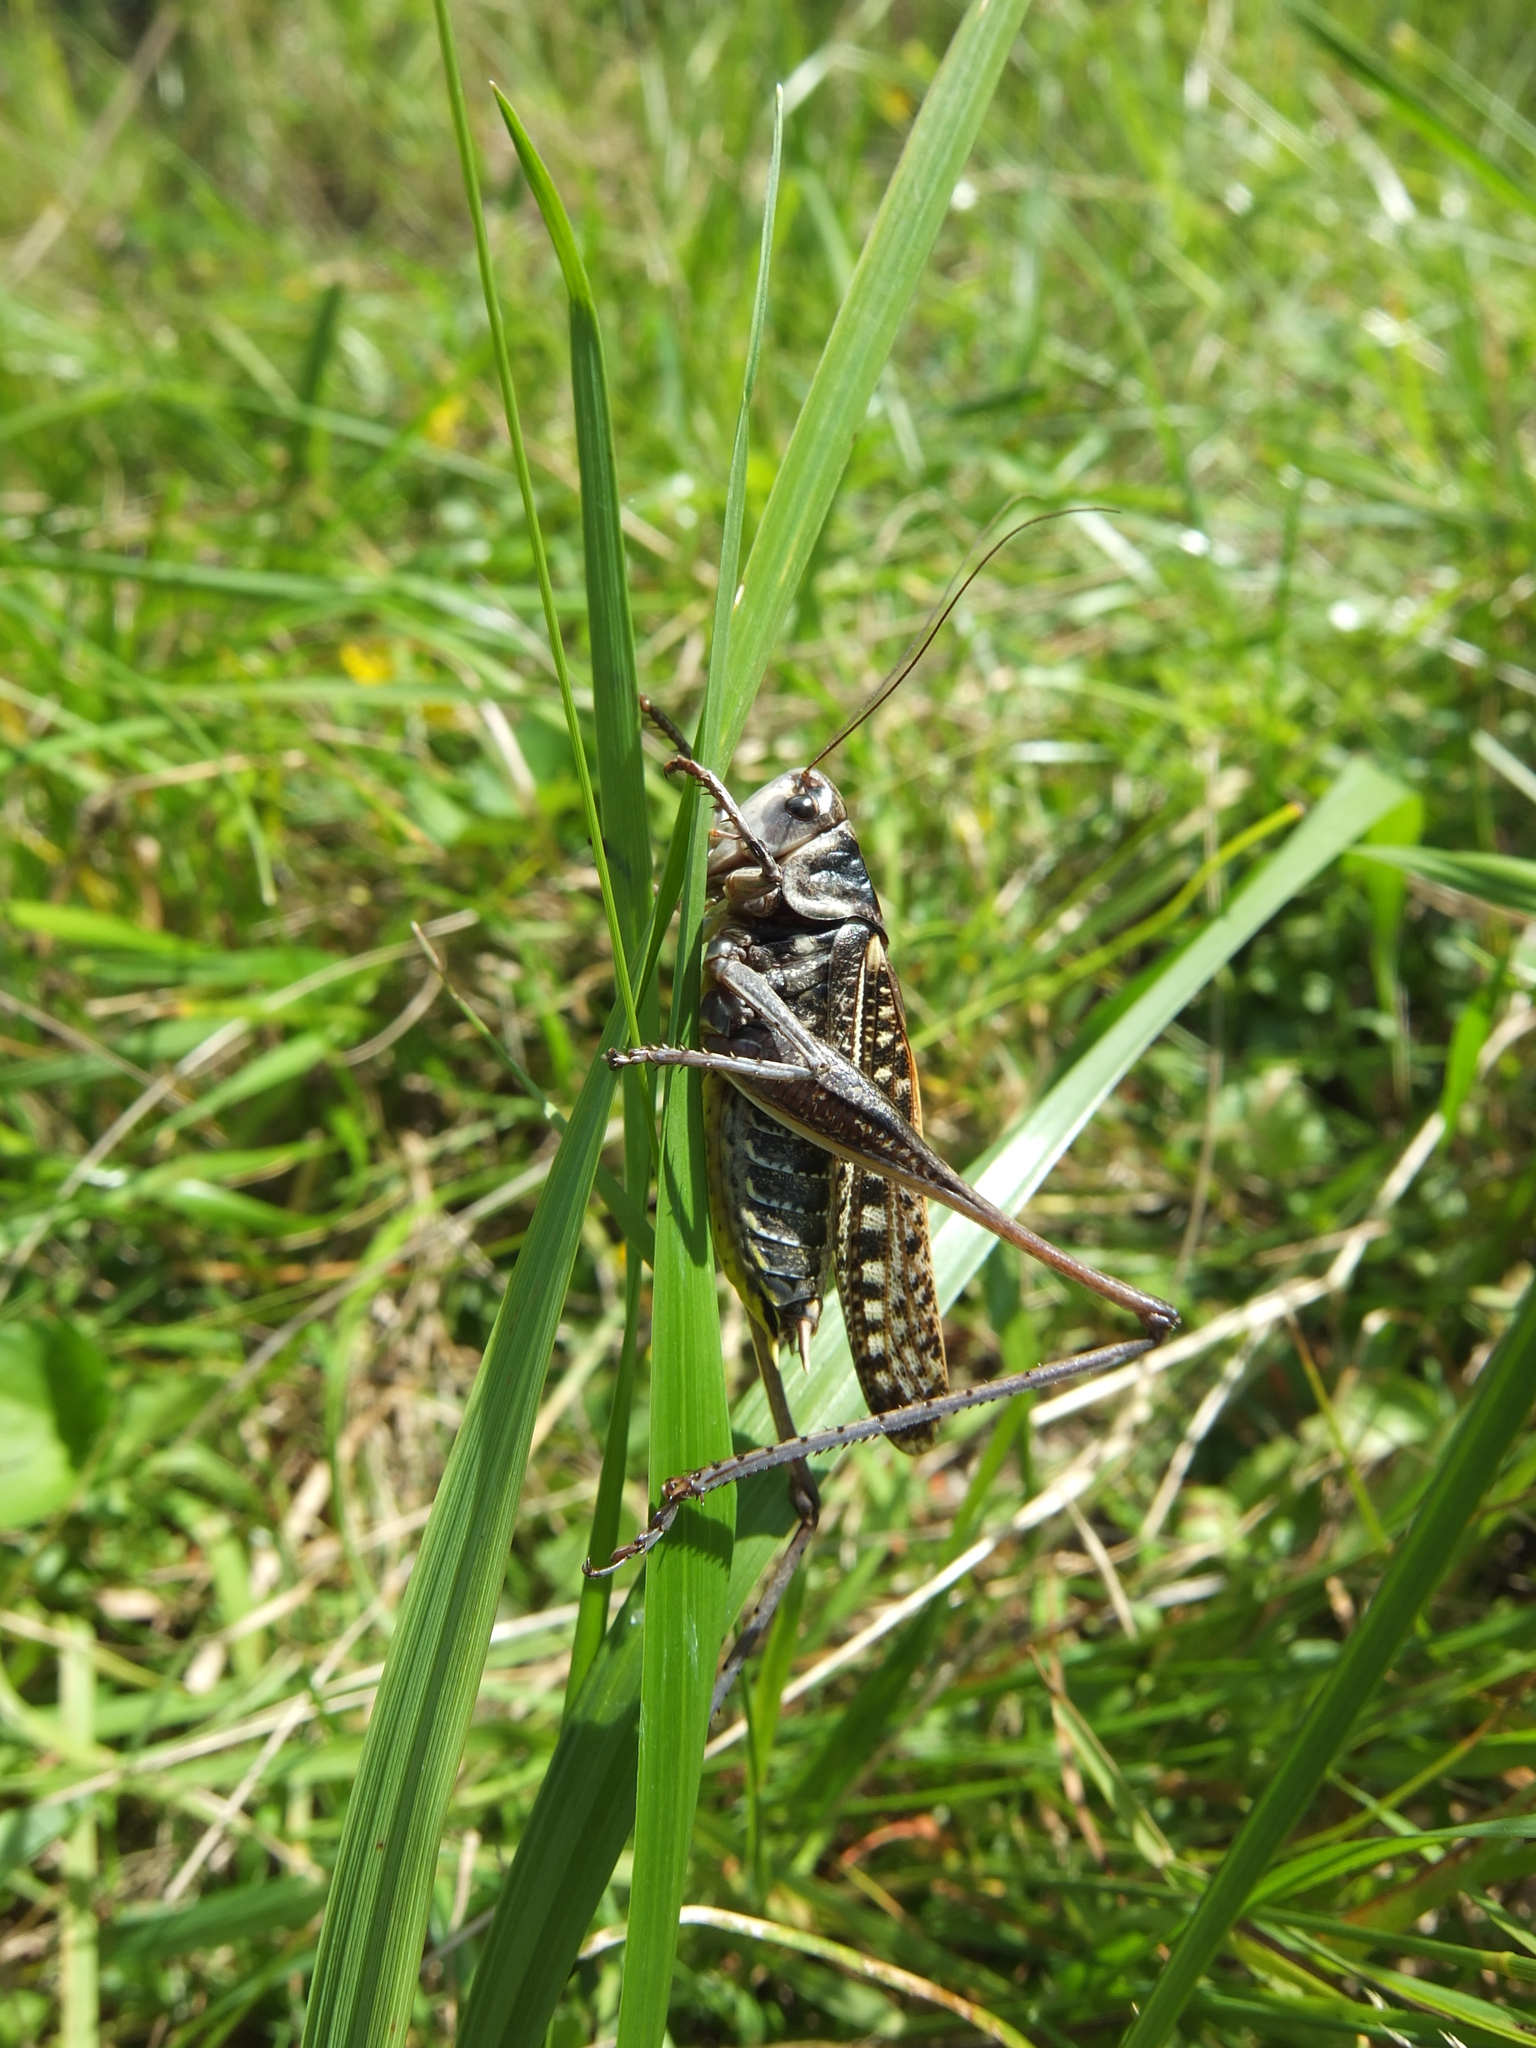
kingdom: Animalia
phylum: Arthropoda
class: Insecta
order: Orthoptera
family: Tettigoniidae
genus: Decticus
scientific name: Decticus verrucivorus
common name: Wart-biter
